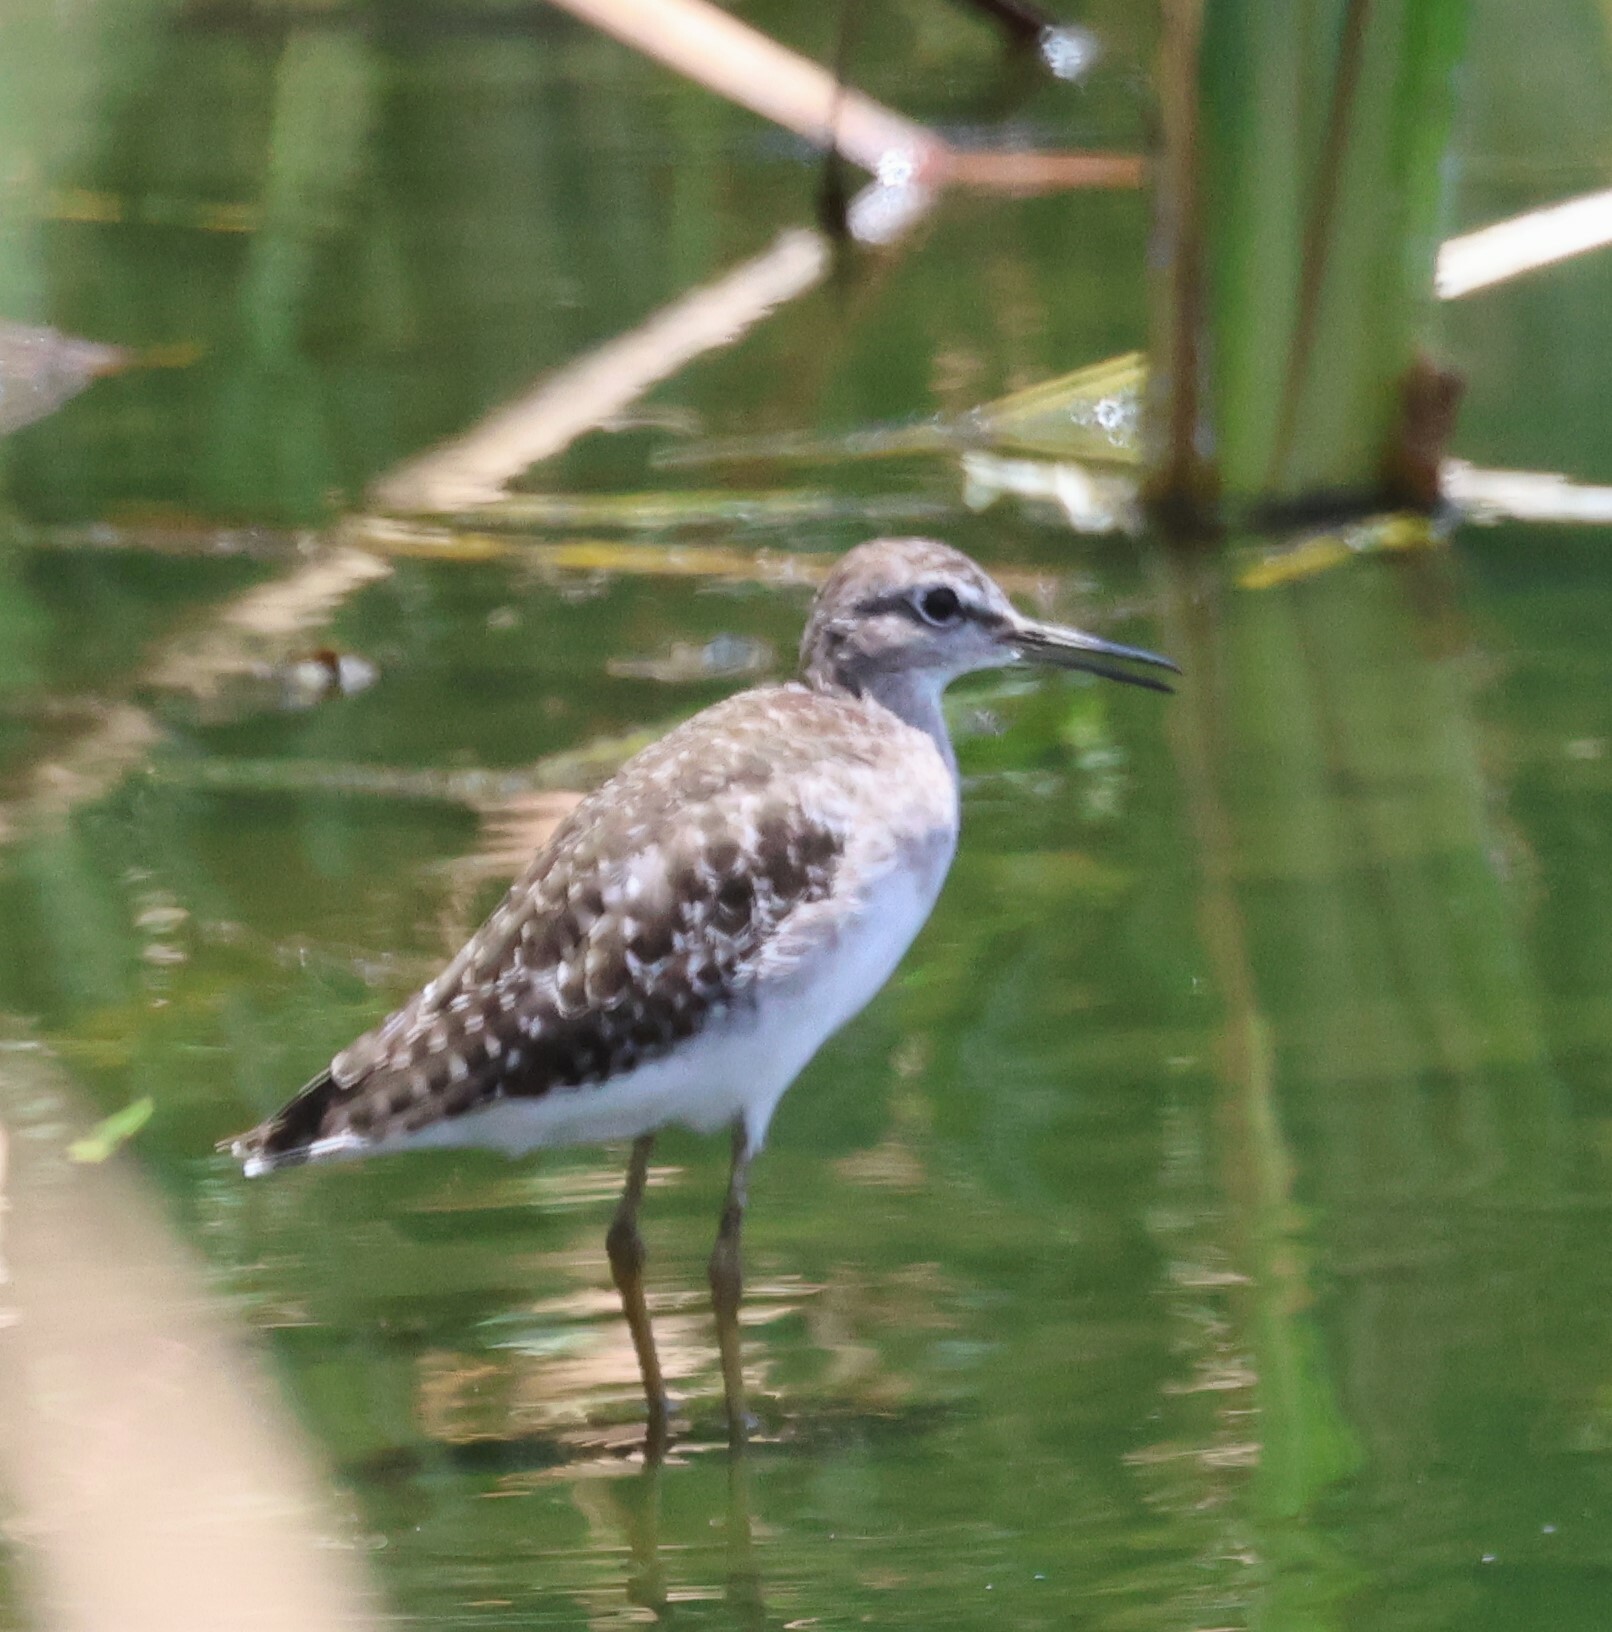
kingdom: Animalia
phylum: Chordata
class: Aves
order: Charadriiformes
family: Scolopacidae
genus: Tringa
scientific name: Tringa glareola
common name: Wood sandpiper
